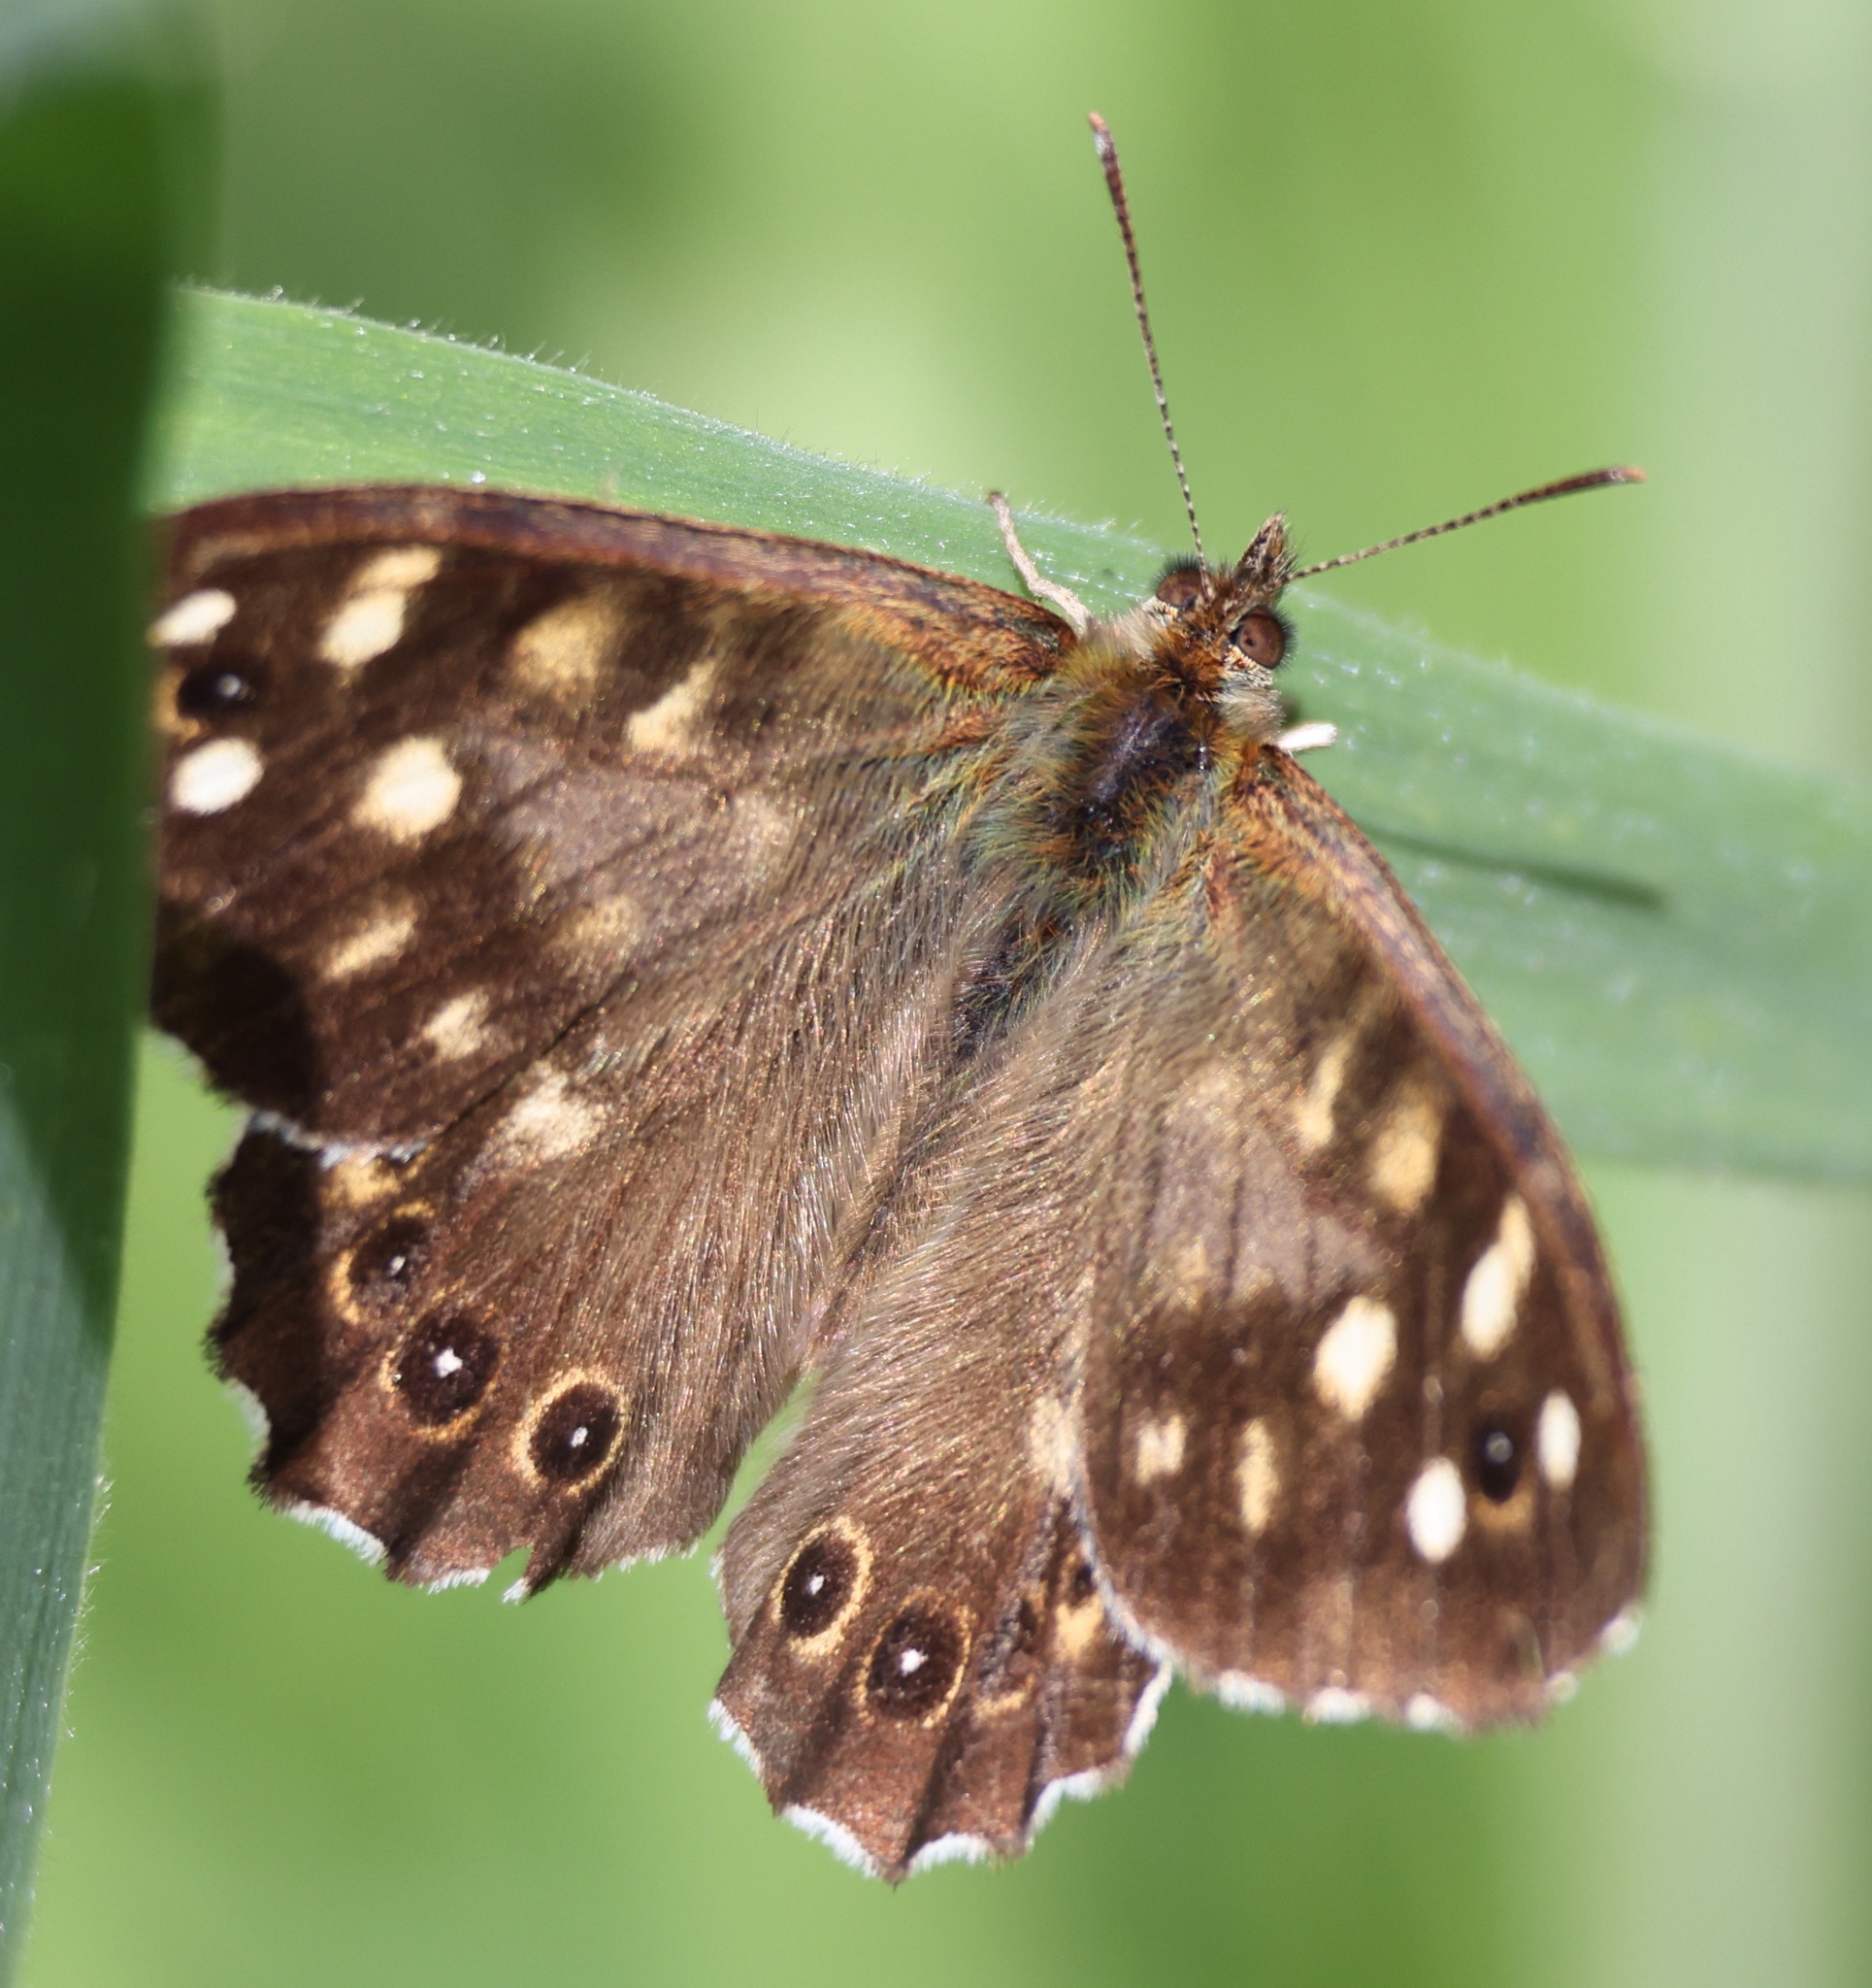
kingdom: Animalia
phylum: Arthropoda
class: Insecta
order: Lepidoptera
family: Nymphalidae
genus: Pararge
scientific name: Pararge aegeria
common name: Speckled wood
